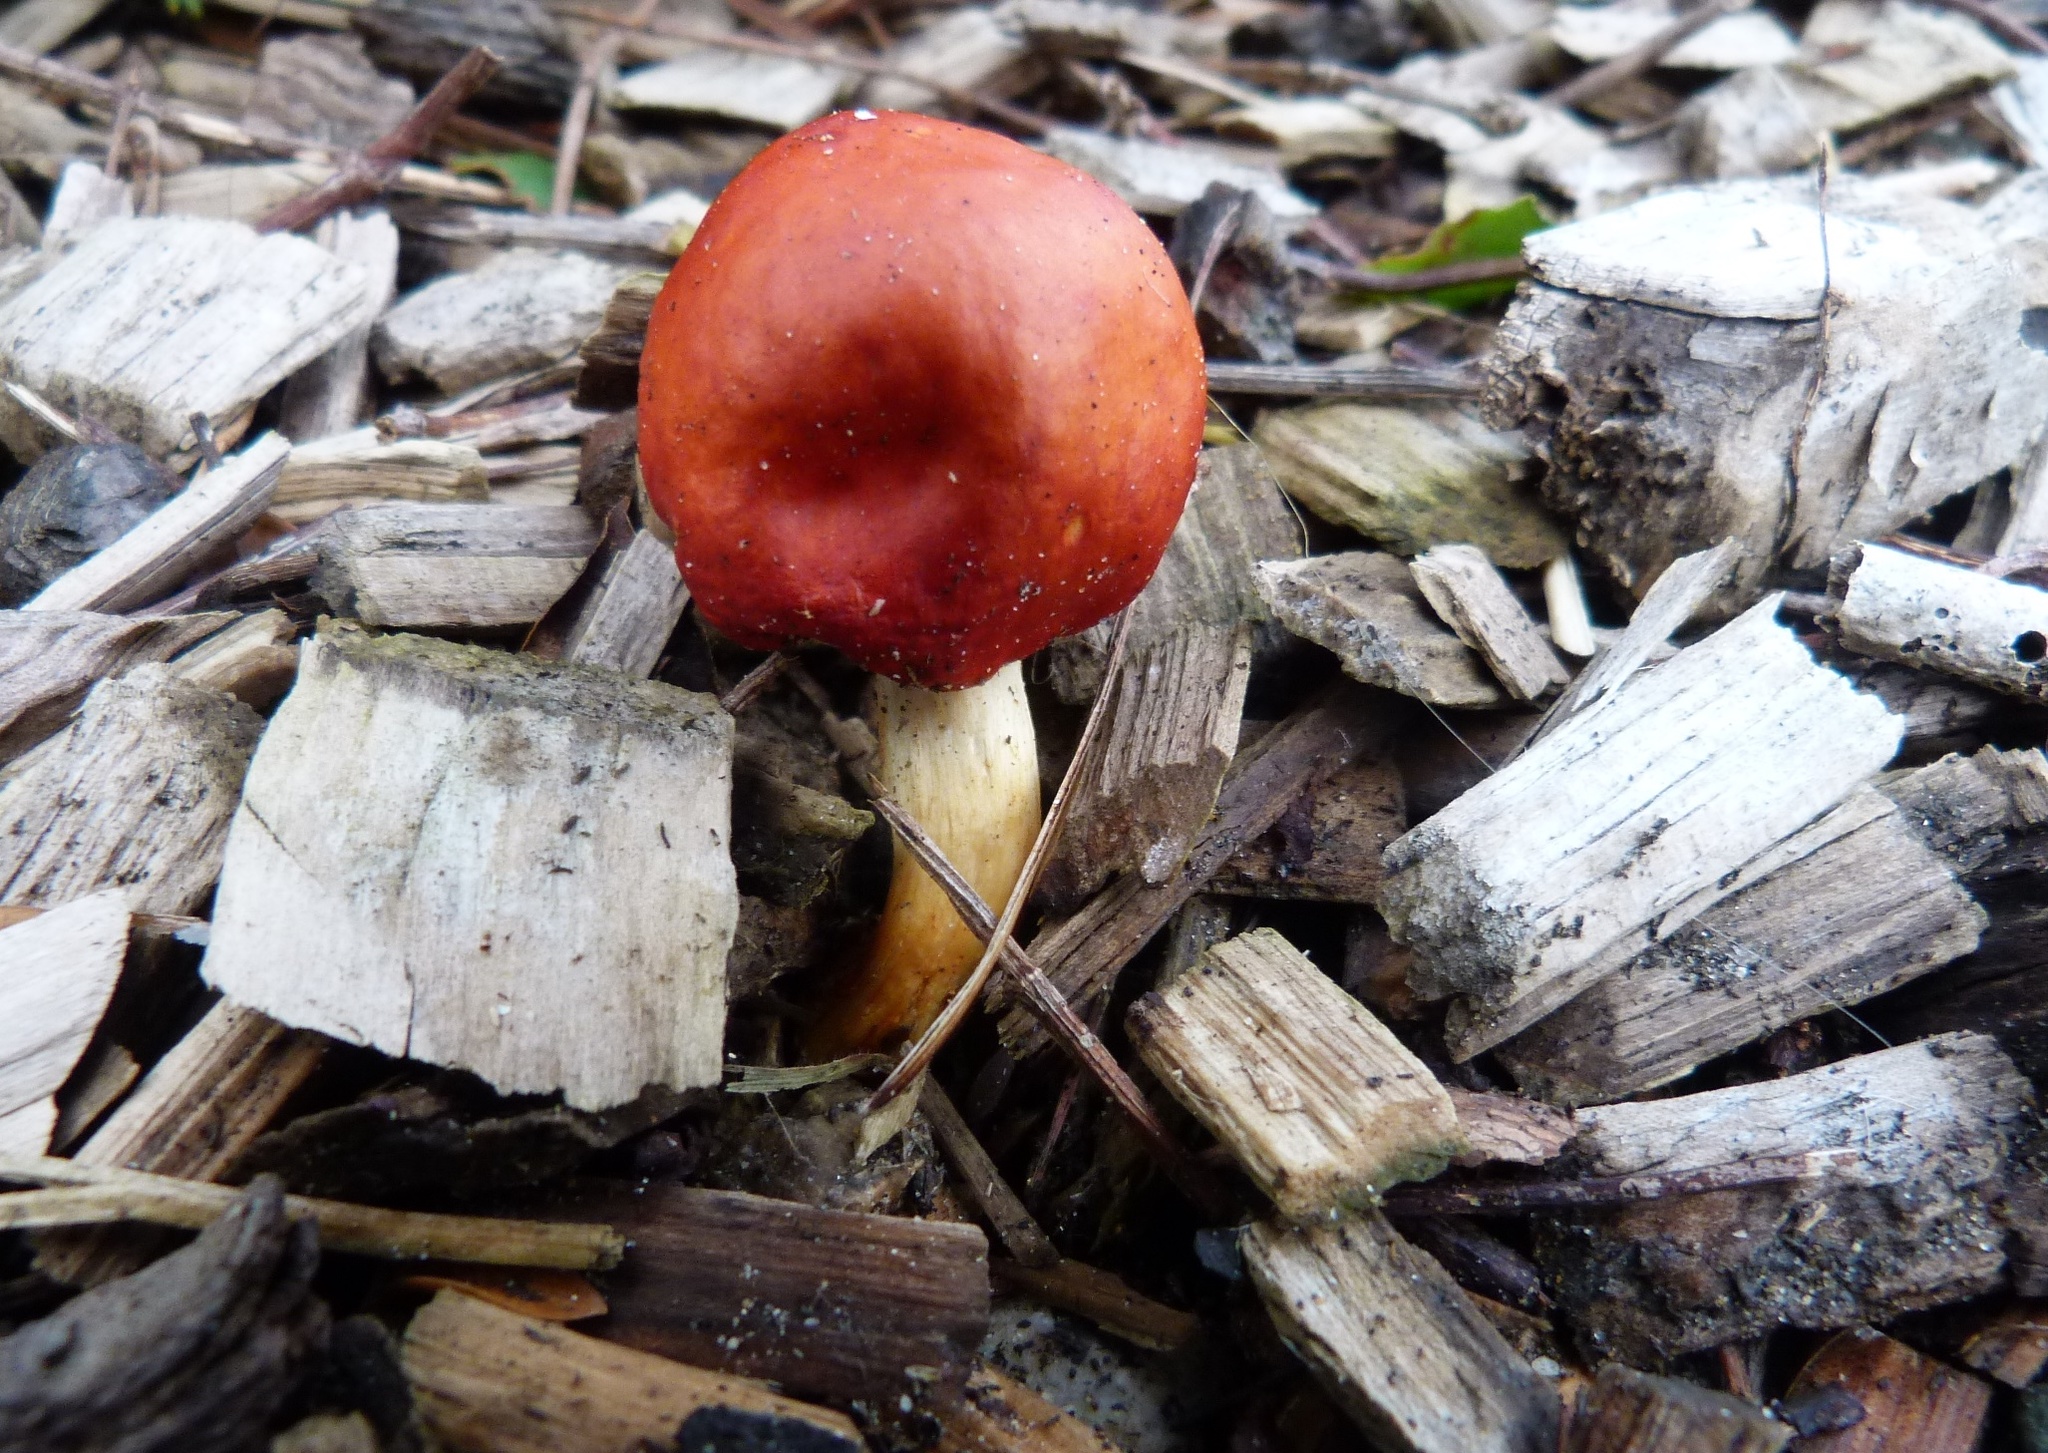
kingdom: Fungi
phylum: Basidiomycota
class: Agaricomycetes
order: Agaricales
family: Strophariaceae
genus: Leratiomyces
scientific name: Leratiomyces erythrocephalus
